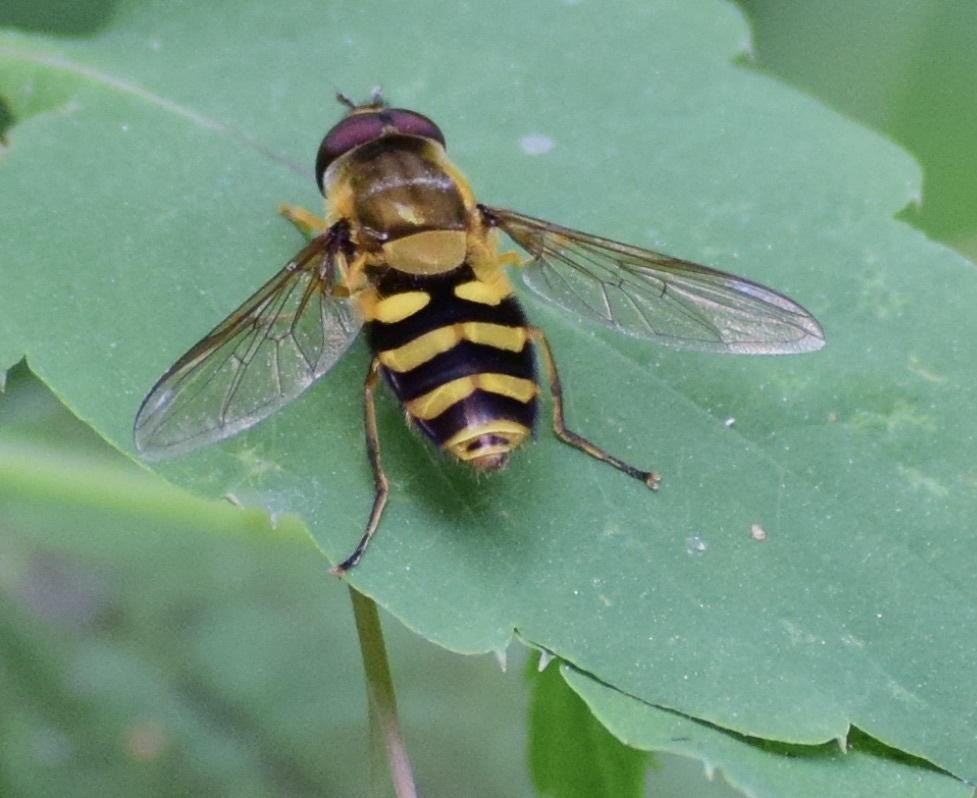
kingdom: Animalia
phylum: Arthropoda
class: Insecta
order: Diptera
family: Syrphidae
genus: Syrphus
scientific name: Syrphus
